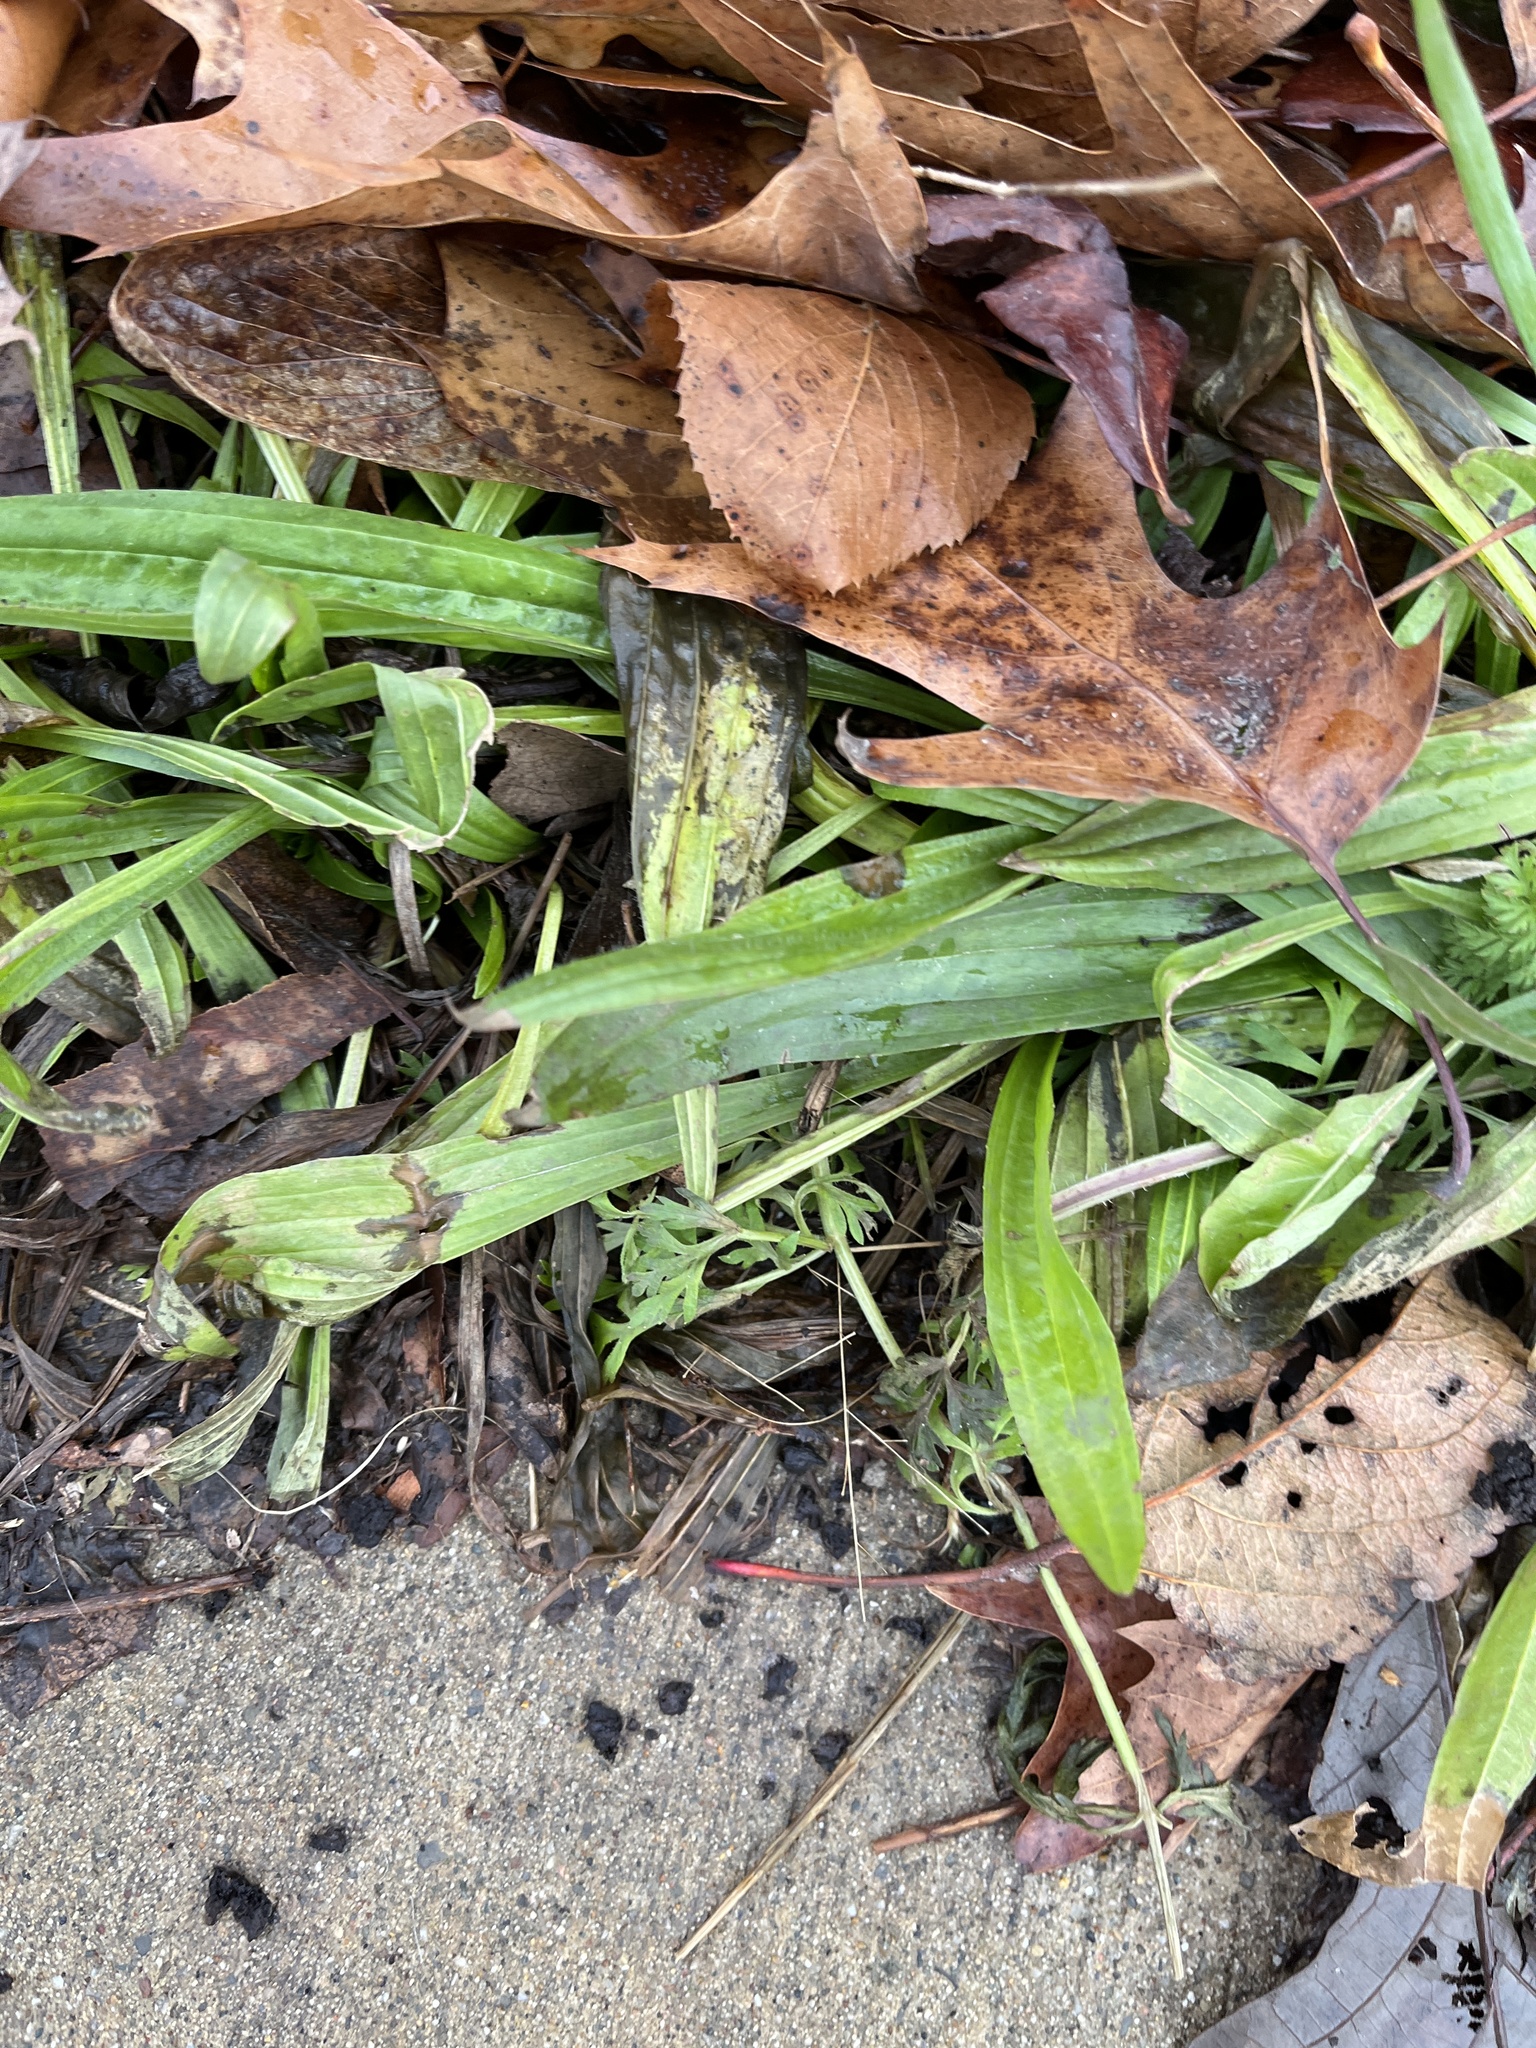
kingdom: Plantae
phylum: Tracheophyta
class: Magnoliopsida
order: Lamiales
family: Plantaginaceae
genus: Plantago
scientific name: Plantago lanceolata
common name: Ribwort plantain
